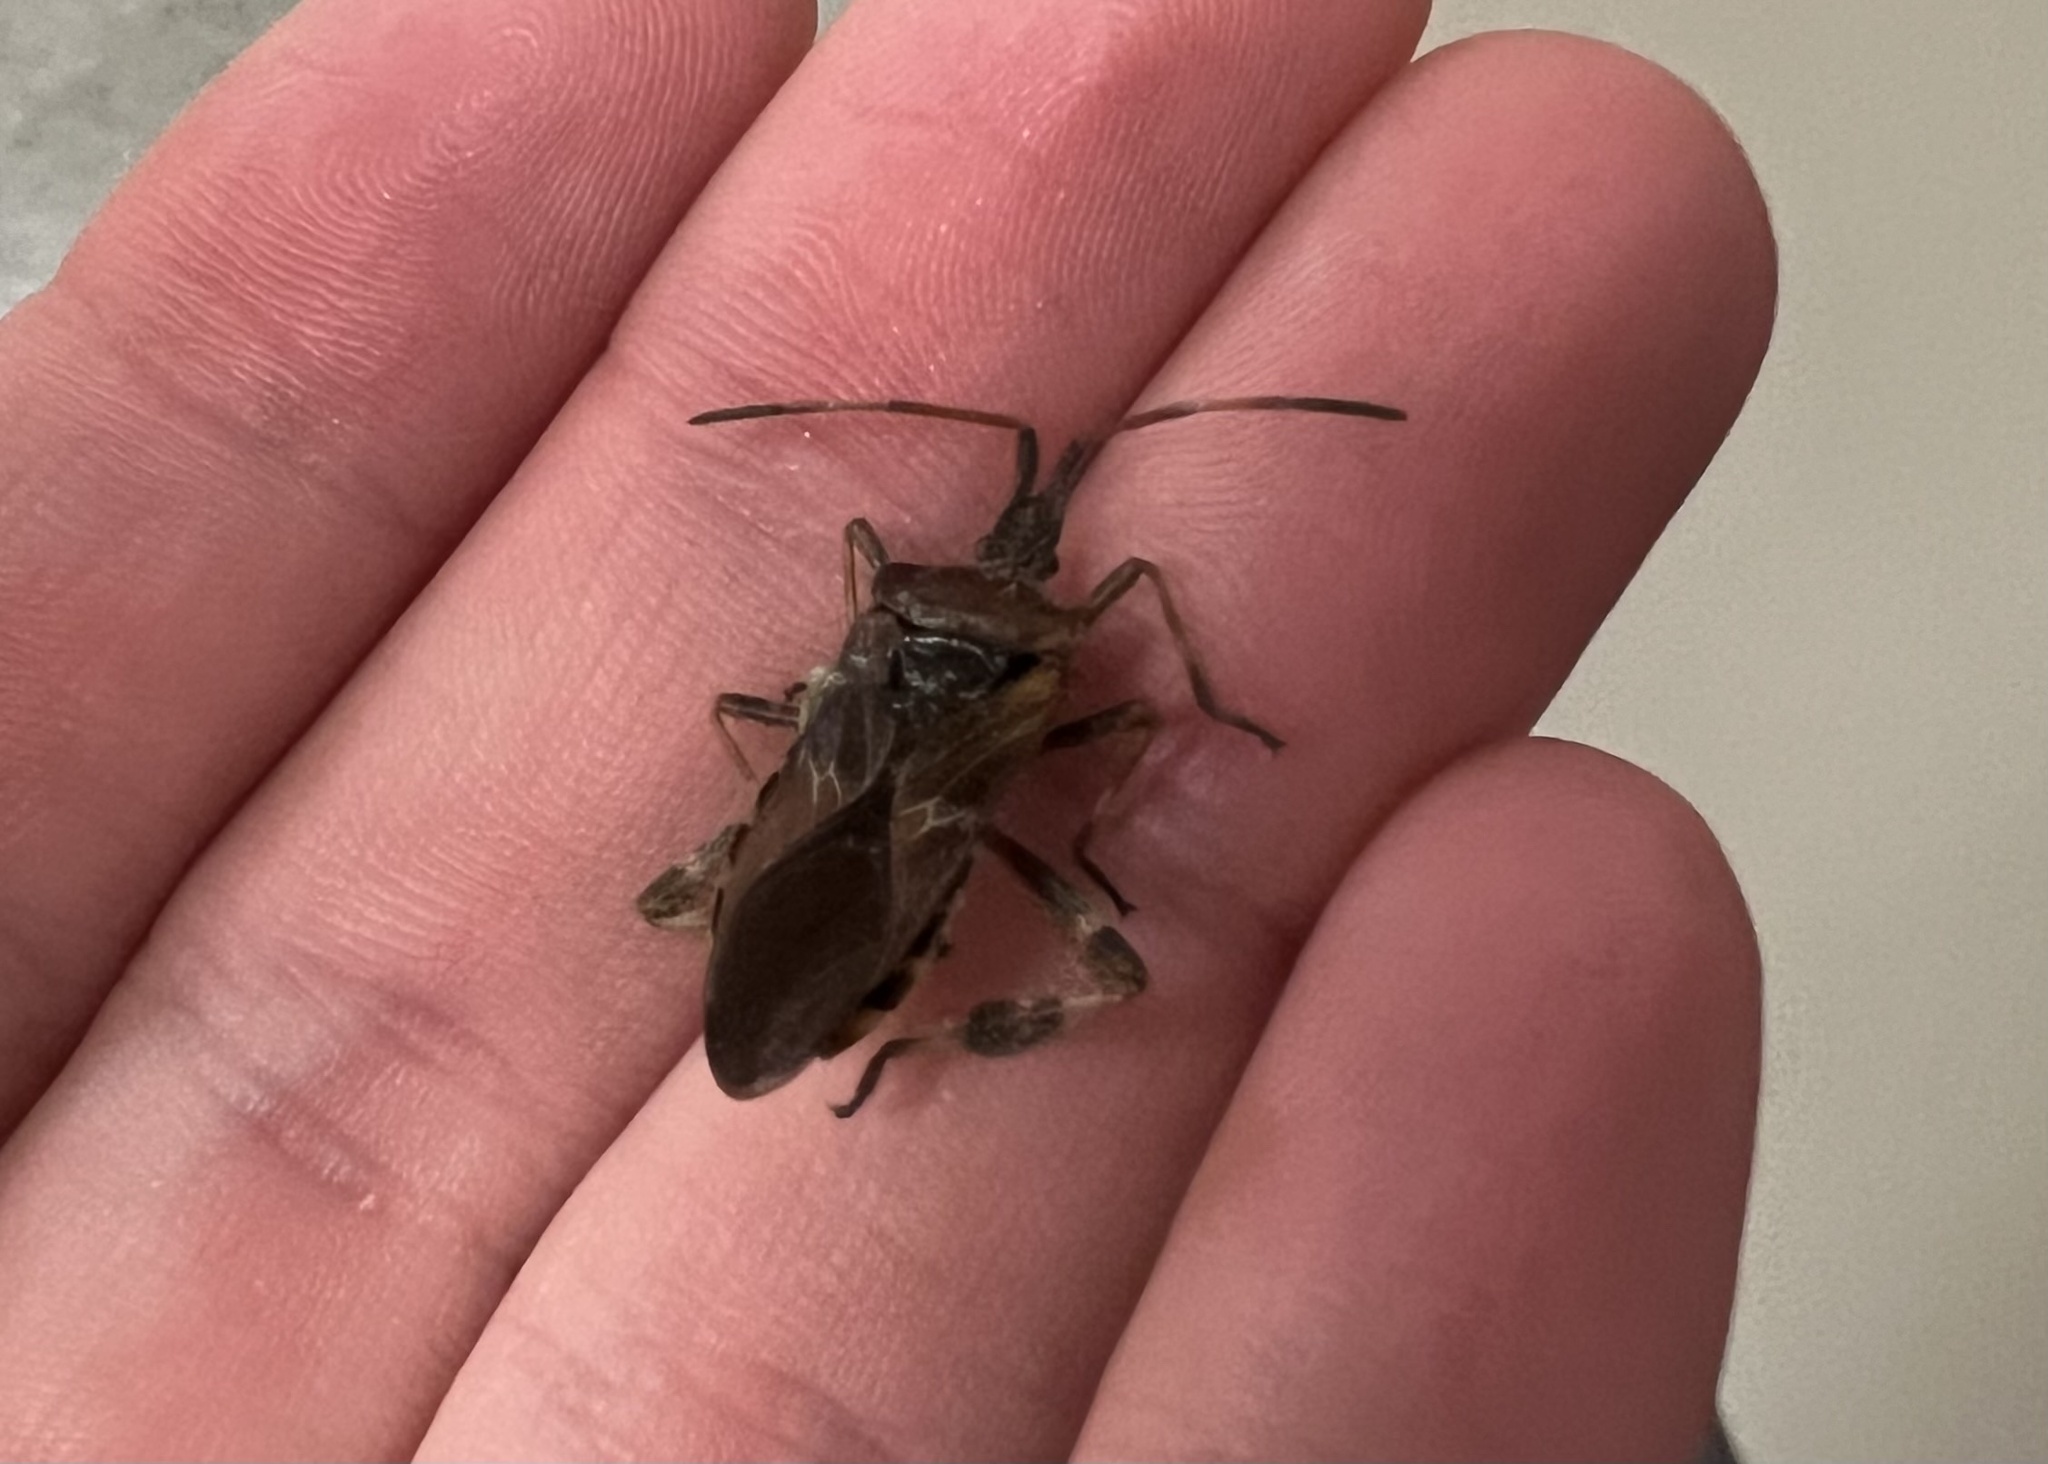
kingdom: Animalia
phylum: Arthropoda
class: Insecta
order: Hemiptera
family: Coreidae
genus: Leptoglossus
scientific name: Leptoglossus occidentalis
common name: Western conifer-seed bug
